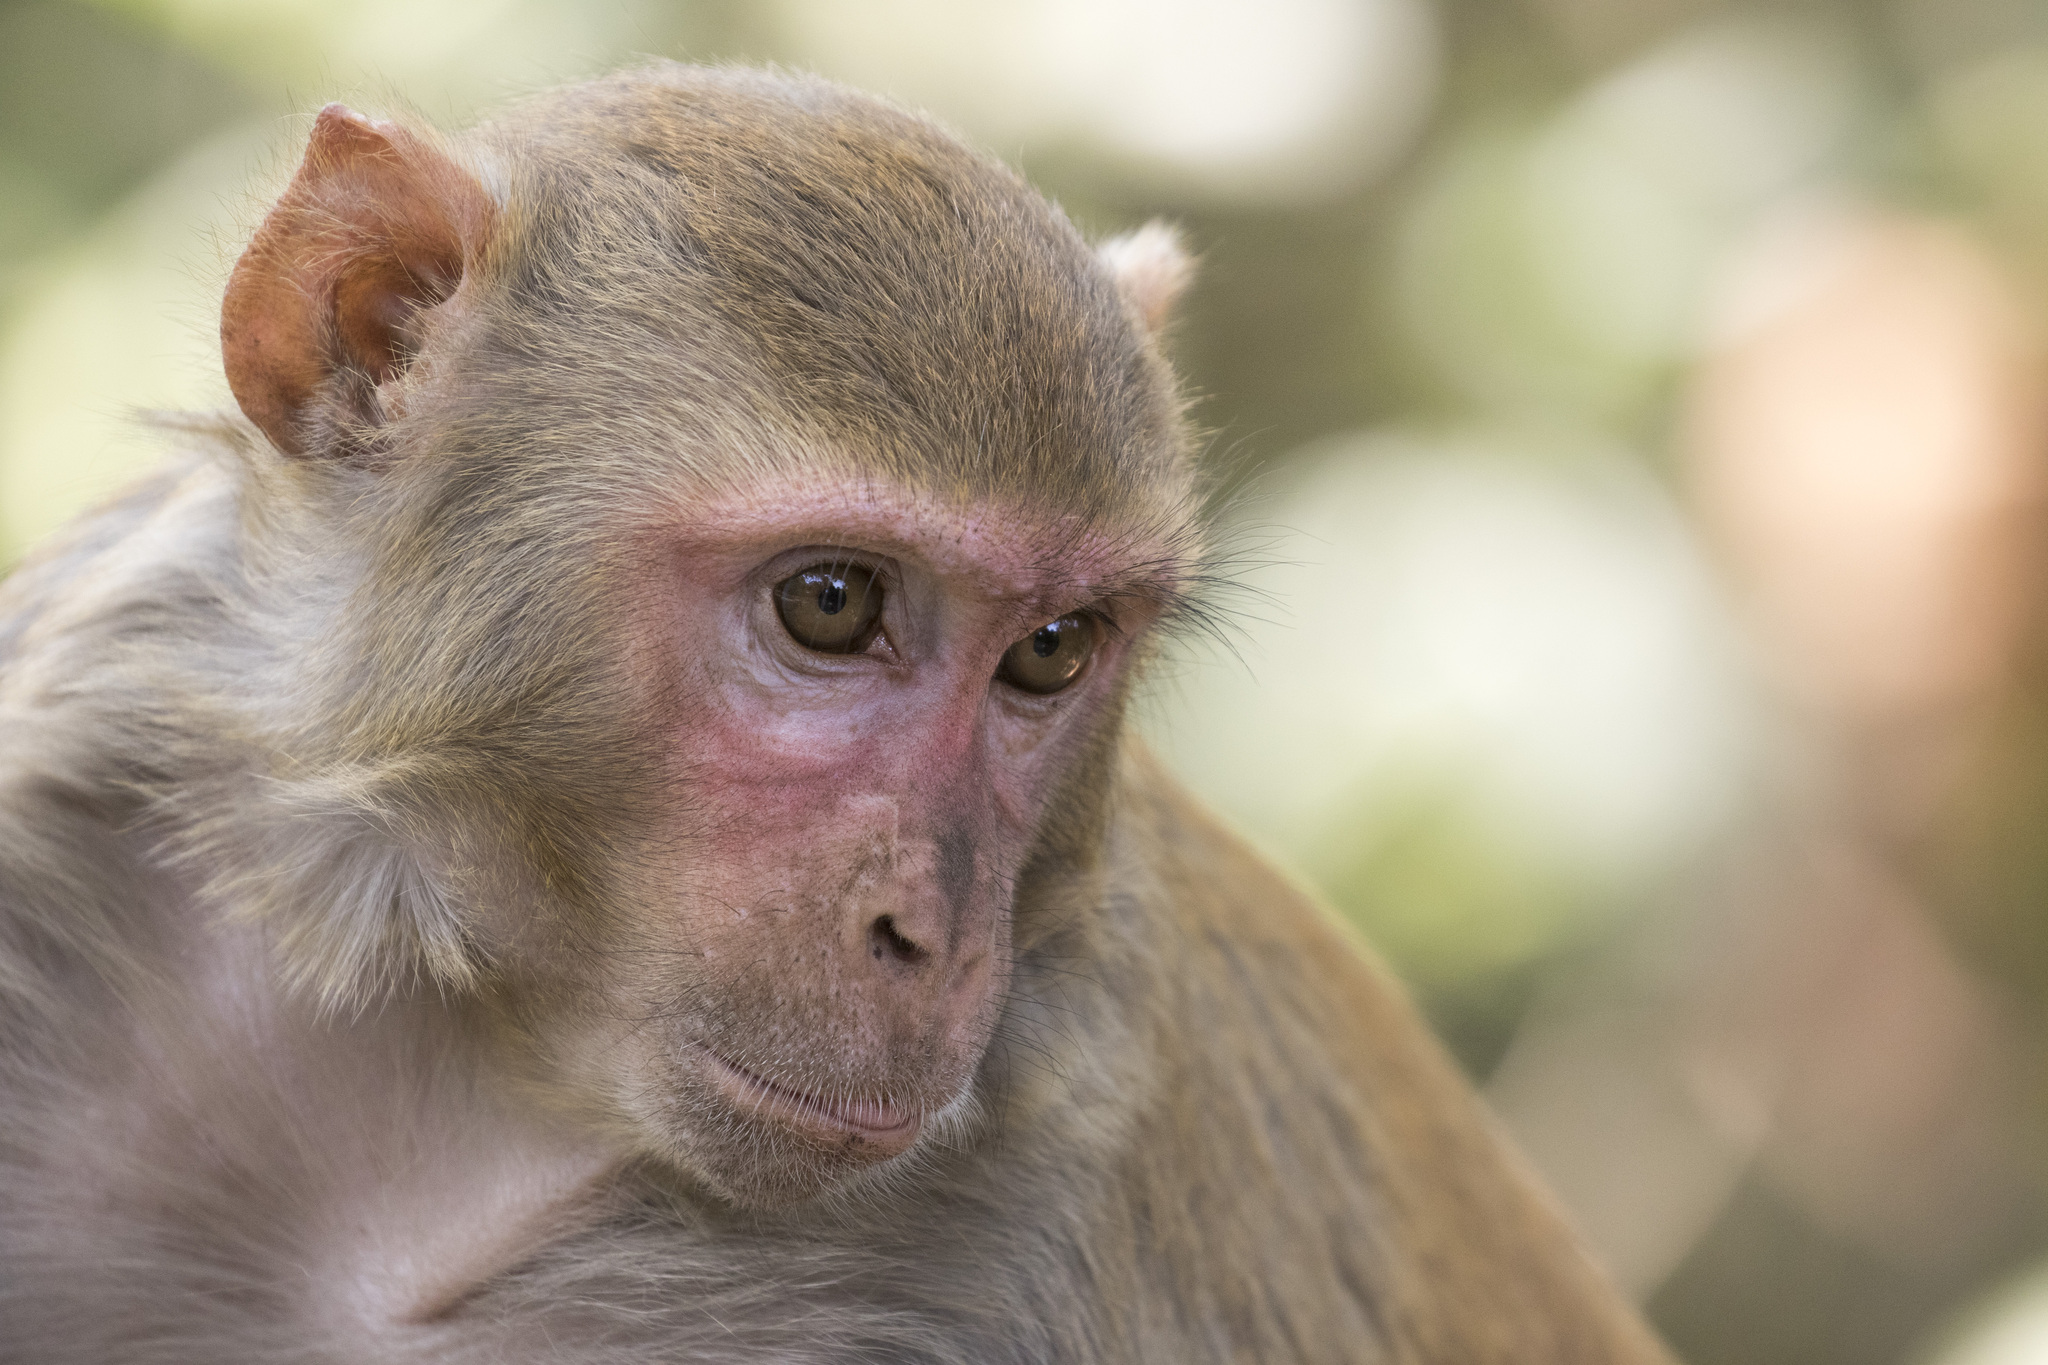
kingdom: Animalia
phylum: Chordata
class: Mammalia
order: Primates
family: Cercopithecidae
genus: Macaca
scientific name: Macaca mulatta
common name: Rhesus monkey
